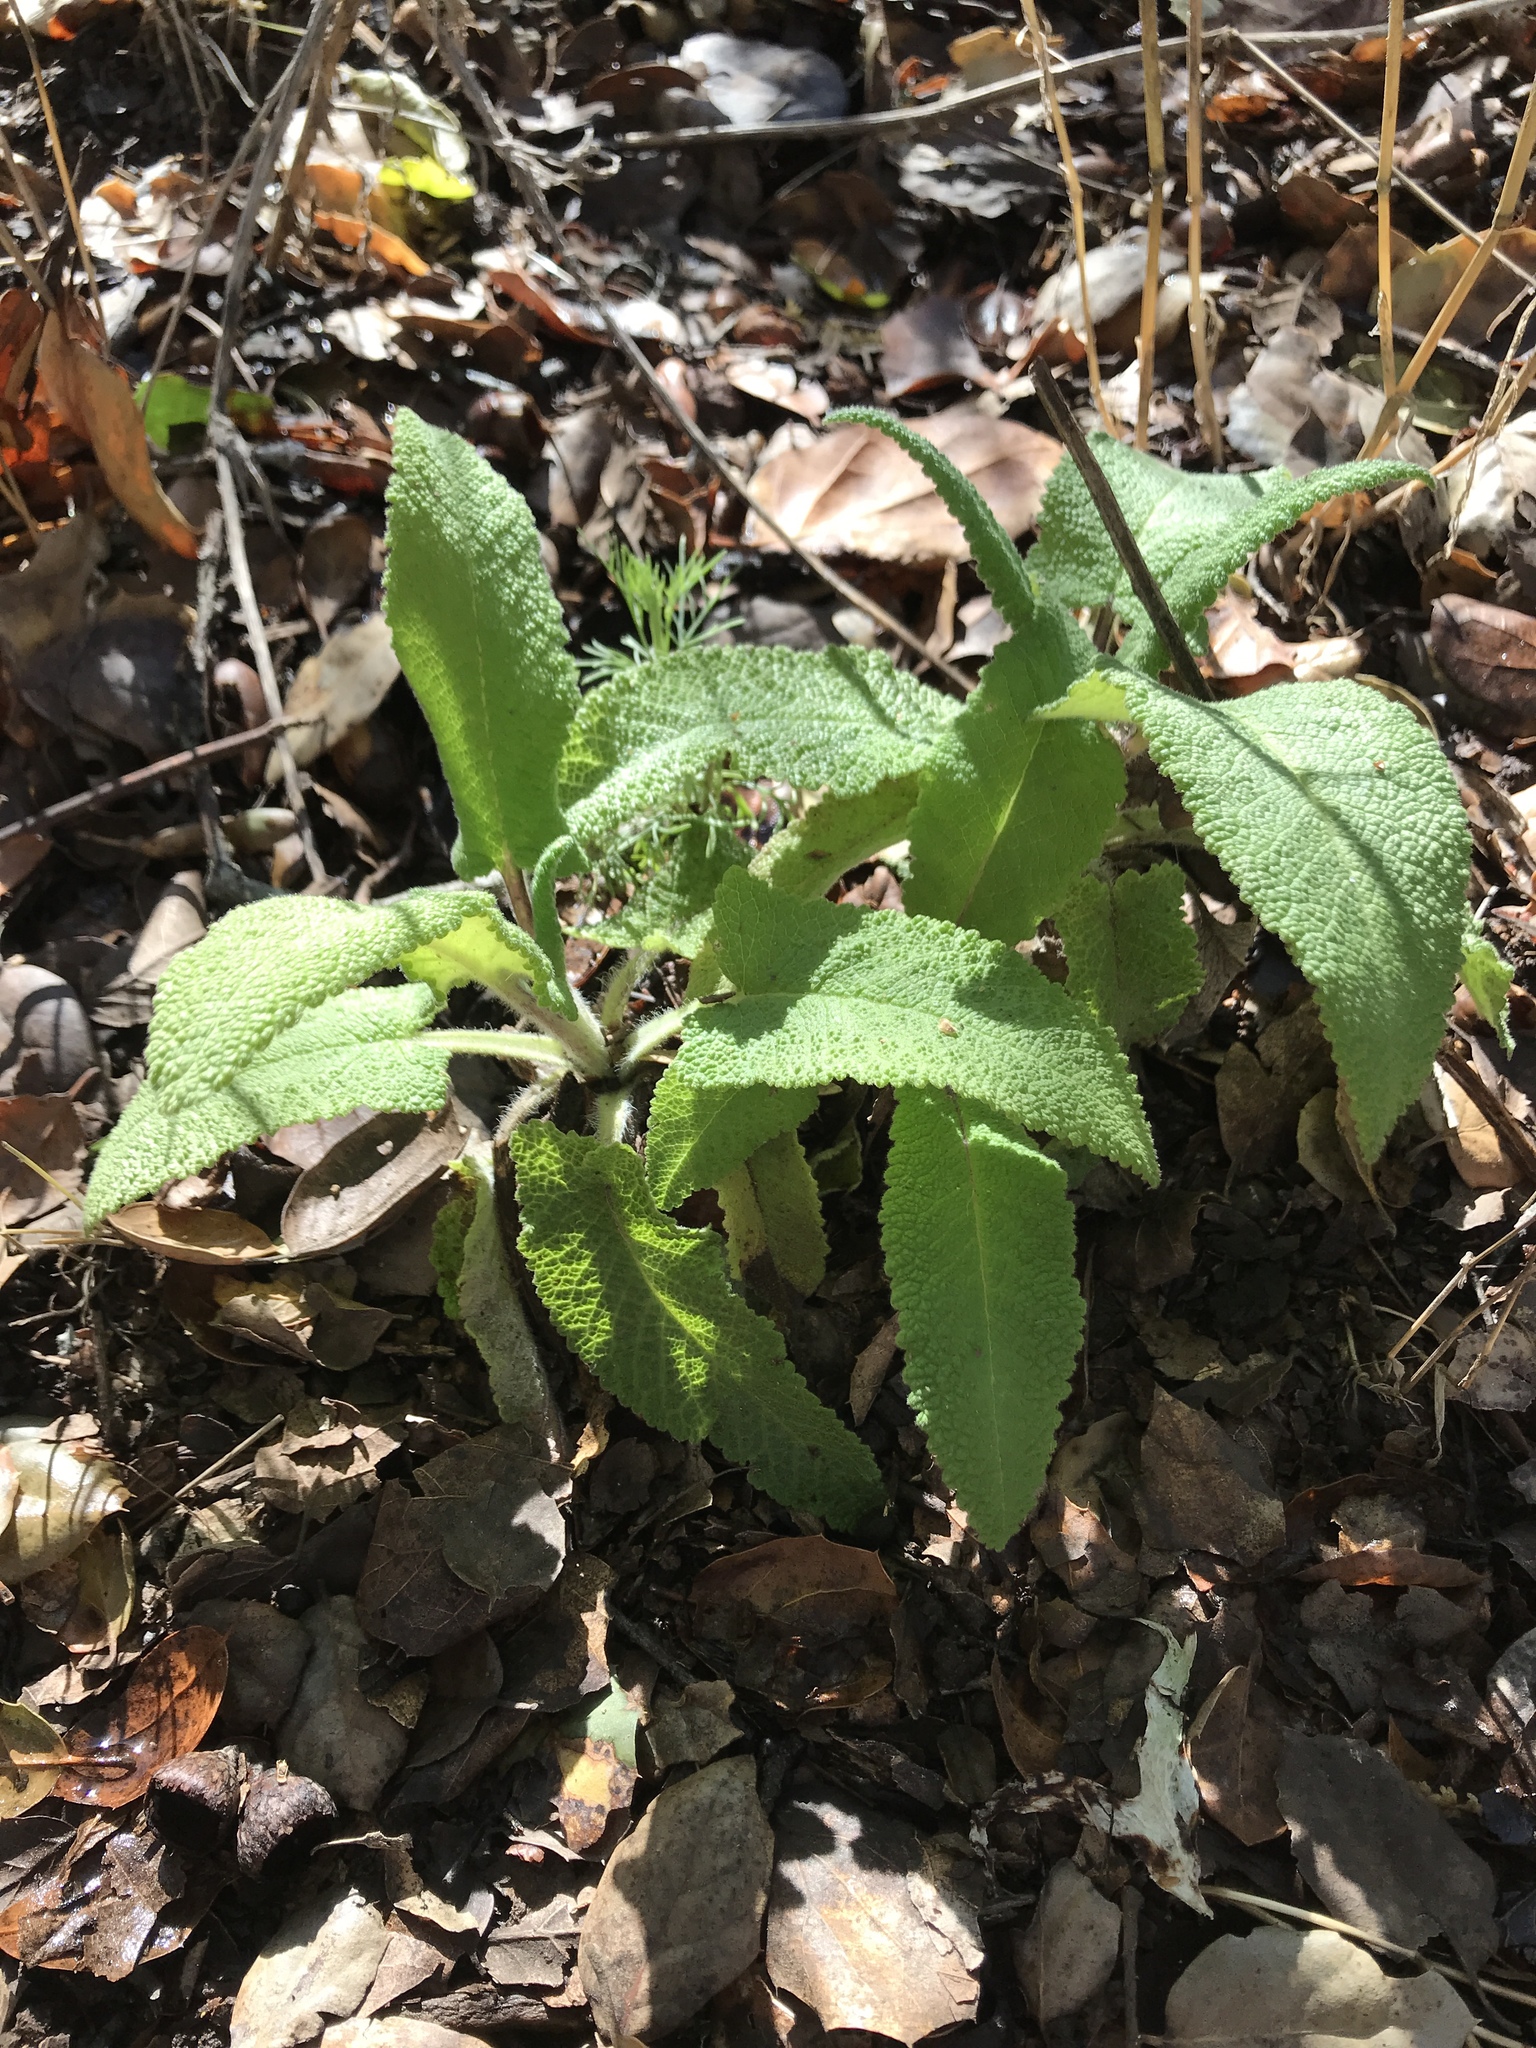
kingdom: Plantae
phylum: Tracheophyta
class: Magnoliopsida
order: Lamiales
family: Lamiaceae
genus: Salvia
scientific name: Salvia spathacea
